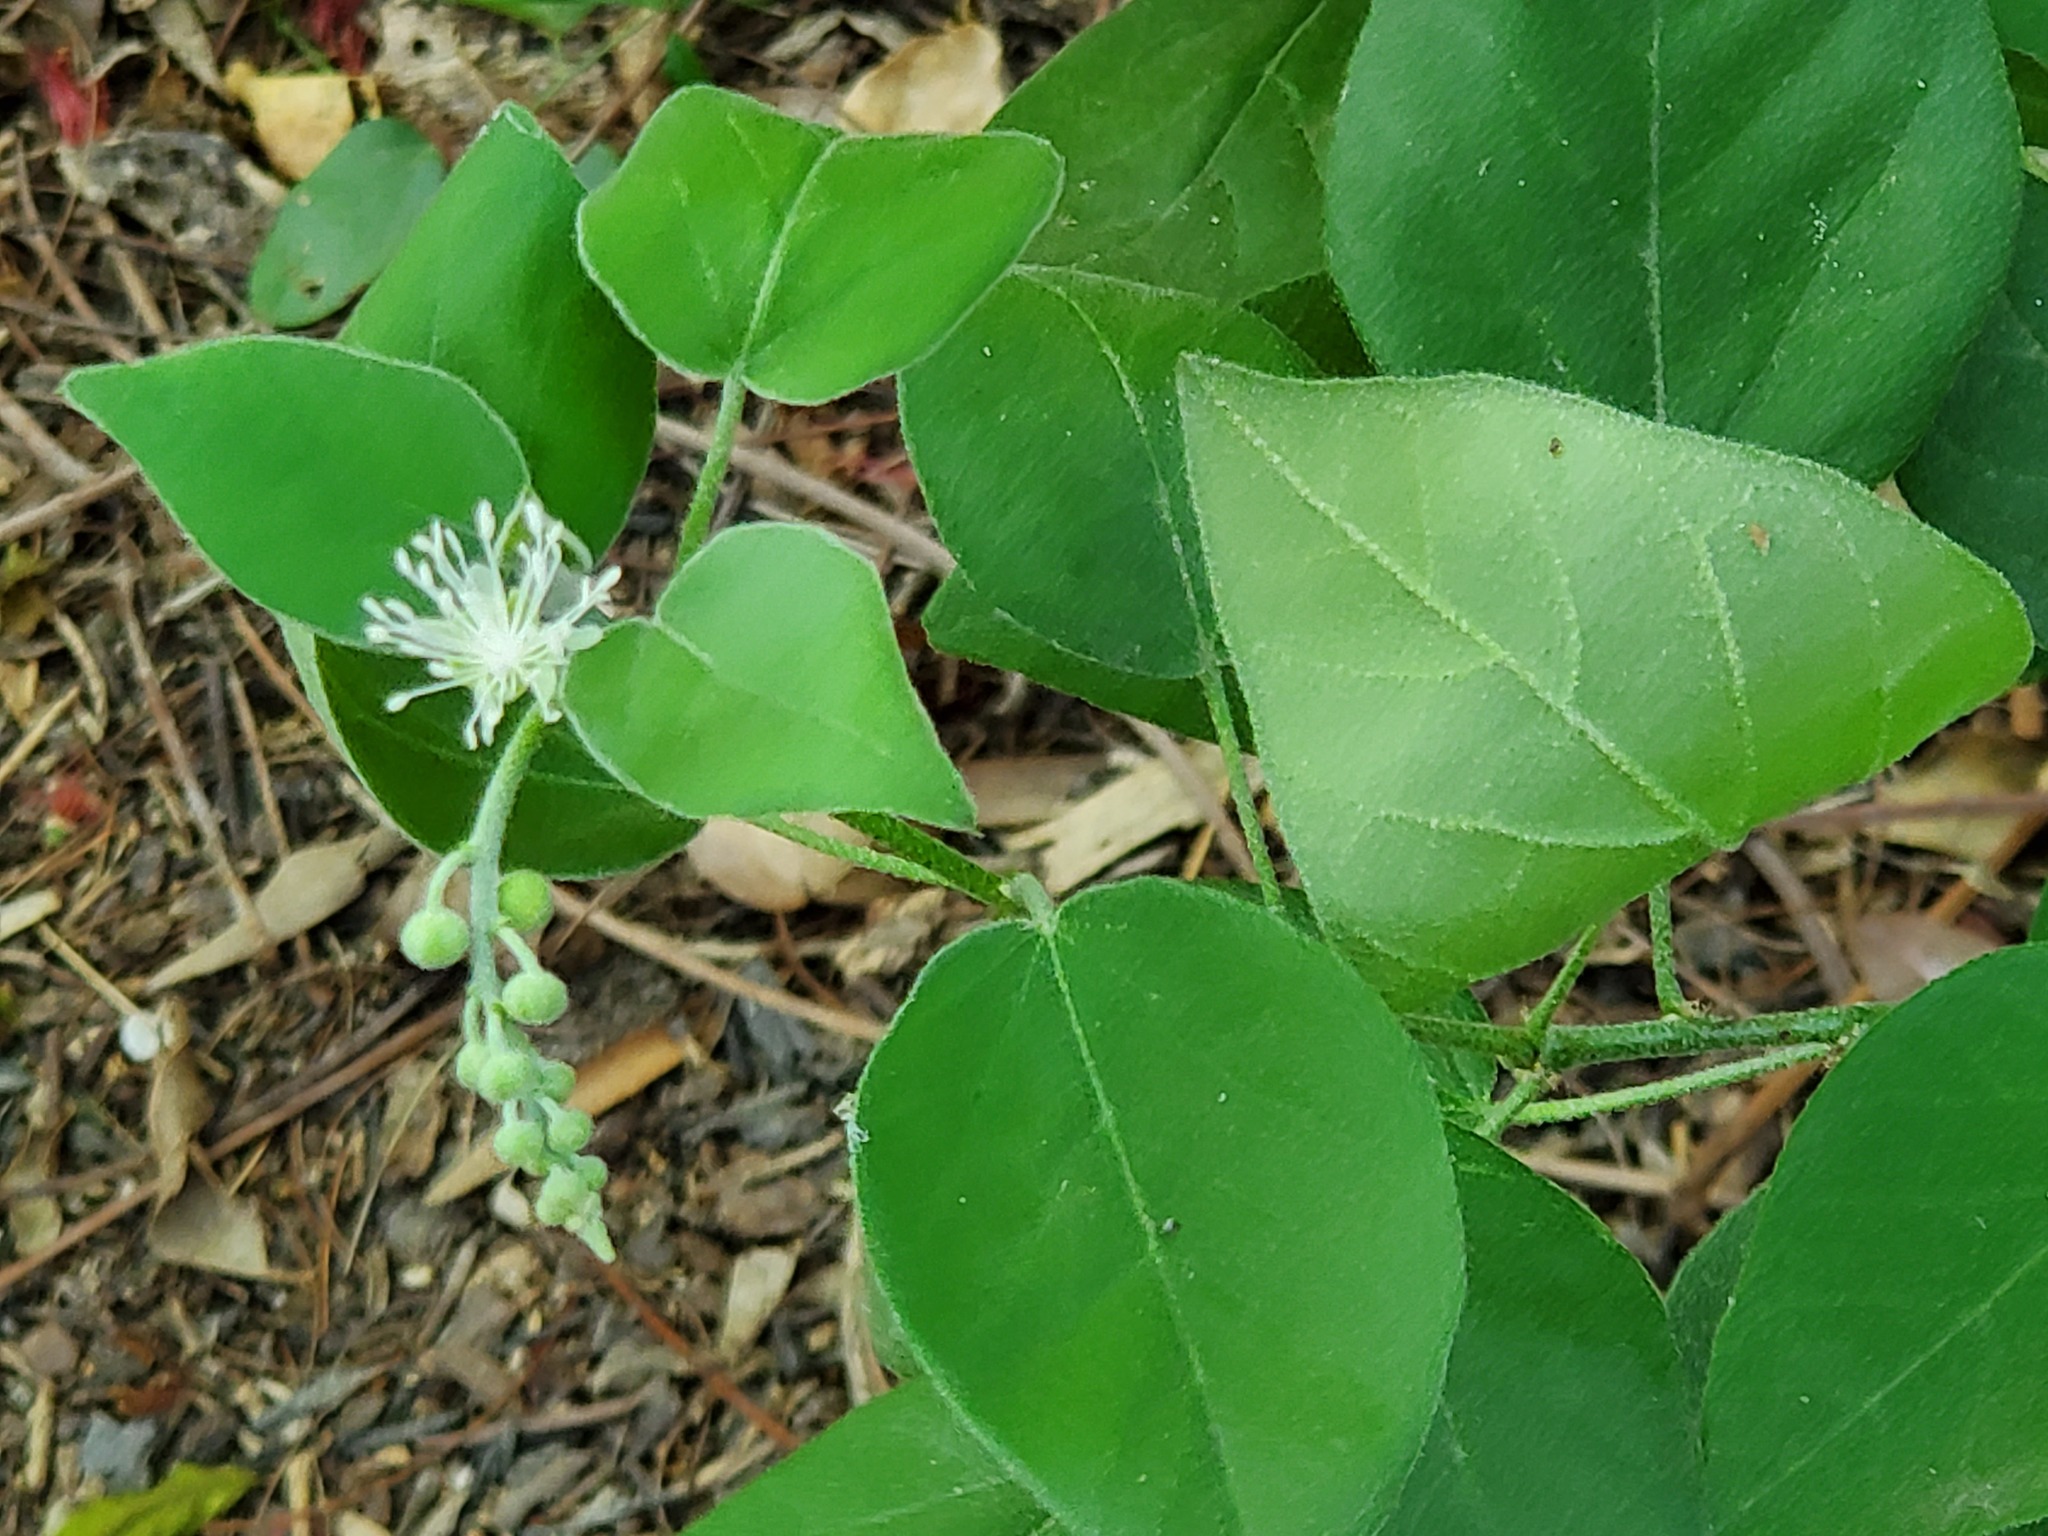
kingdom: Plantae
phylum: Tracheophyta
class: Magnoliopsida
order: Malpighiales
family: Euphorbiaceae
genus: Croton
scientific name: Croton humilis
